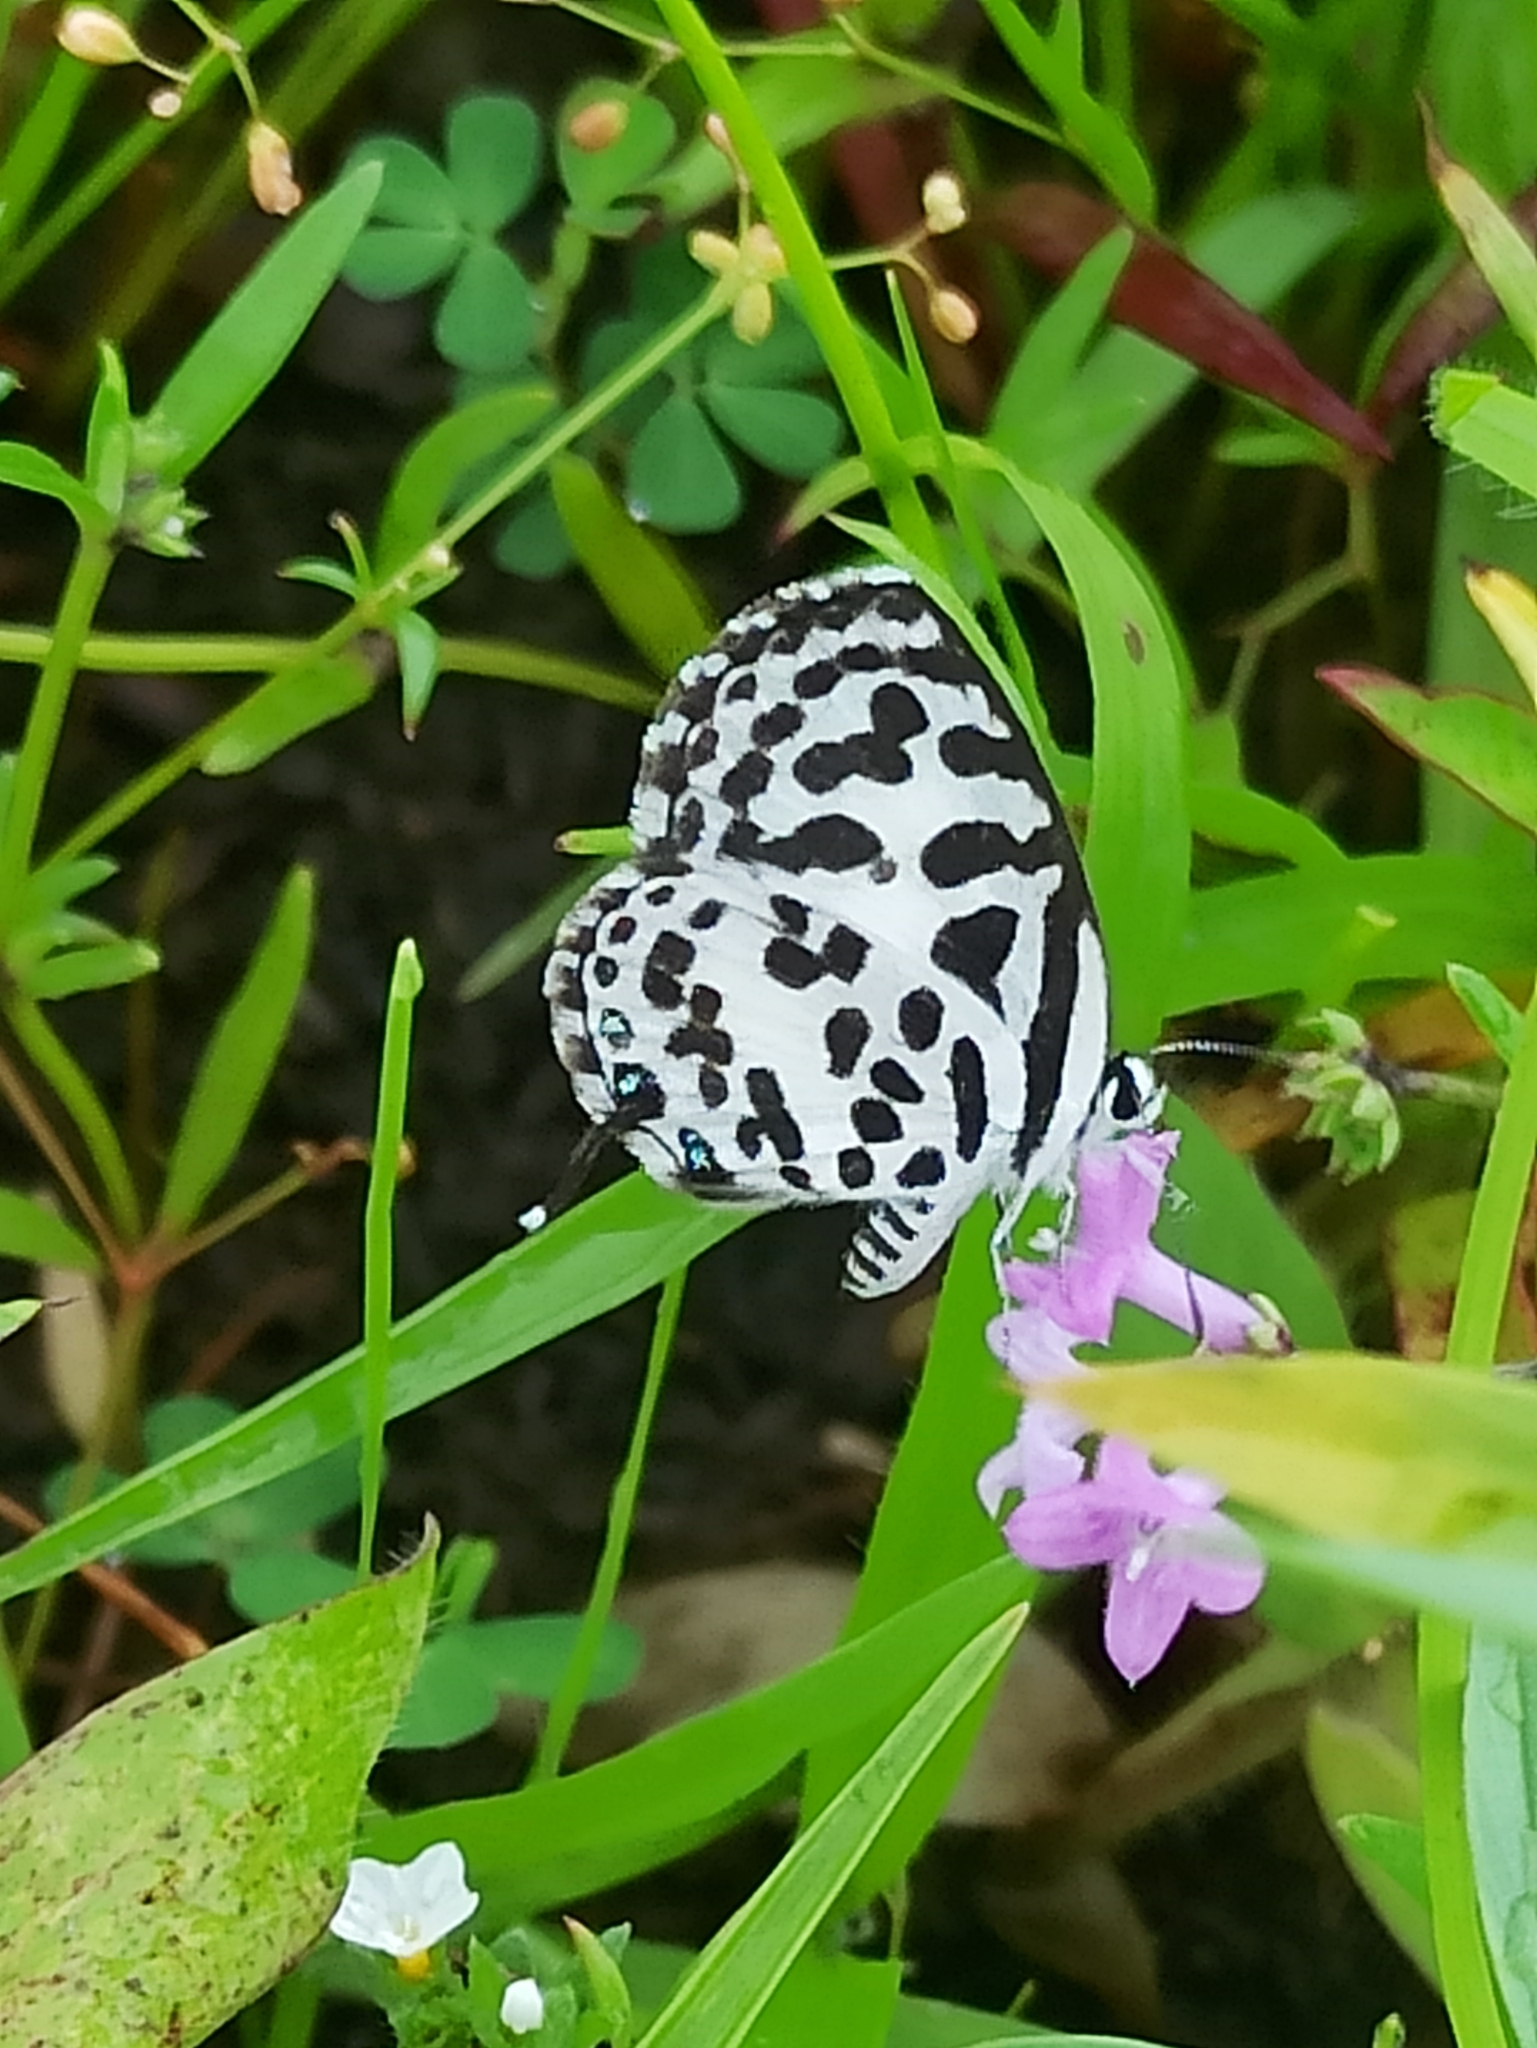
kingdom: Animalia
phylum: Arthropoda
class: Insecta
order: Lepidoptera
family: Lycaenidae
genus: Castalius
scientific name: Castalius rosimon
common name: Common pierrot
